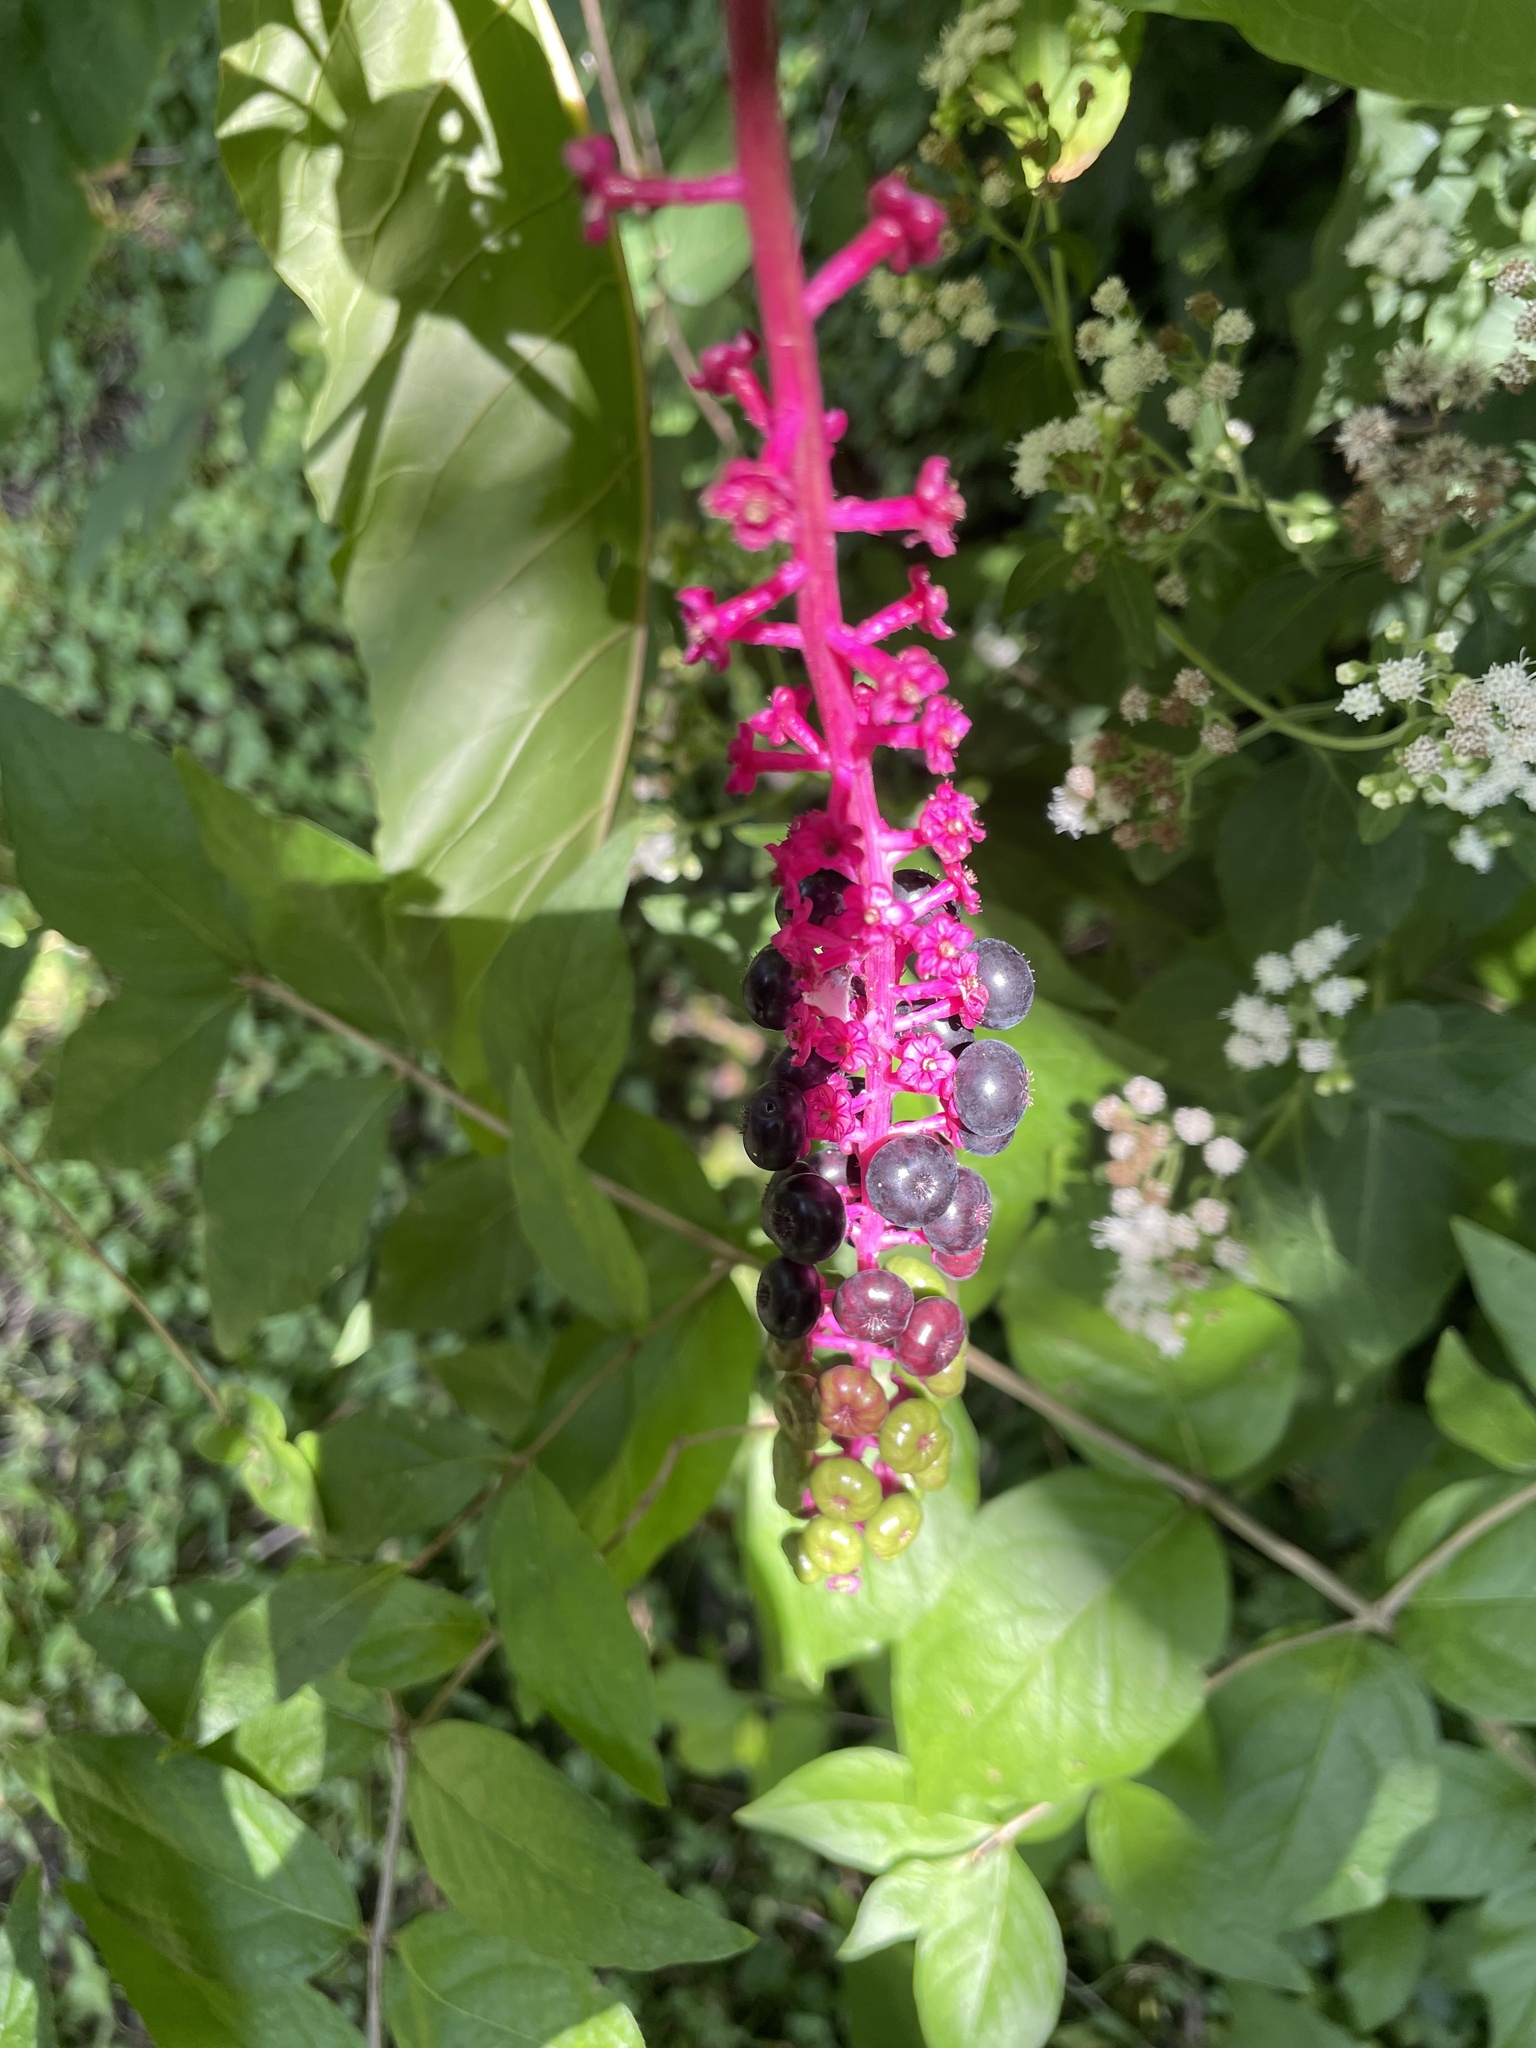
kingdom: Plantae
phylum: Tracheophyta
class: Magnoliopsida
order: Caryophyllales
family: Phytolaccaceae
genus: Phytolacca
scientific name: Phytolacca americana
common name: American pokeweed
